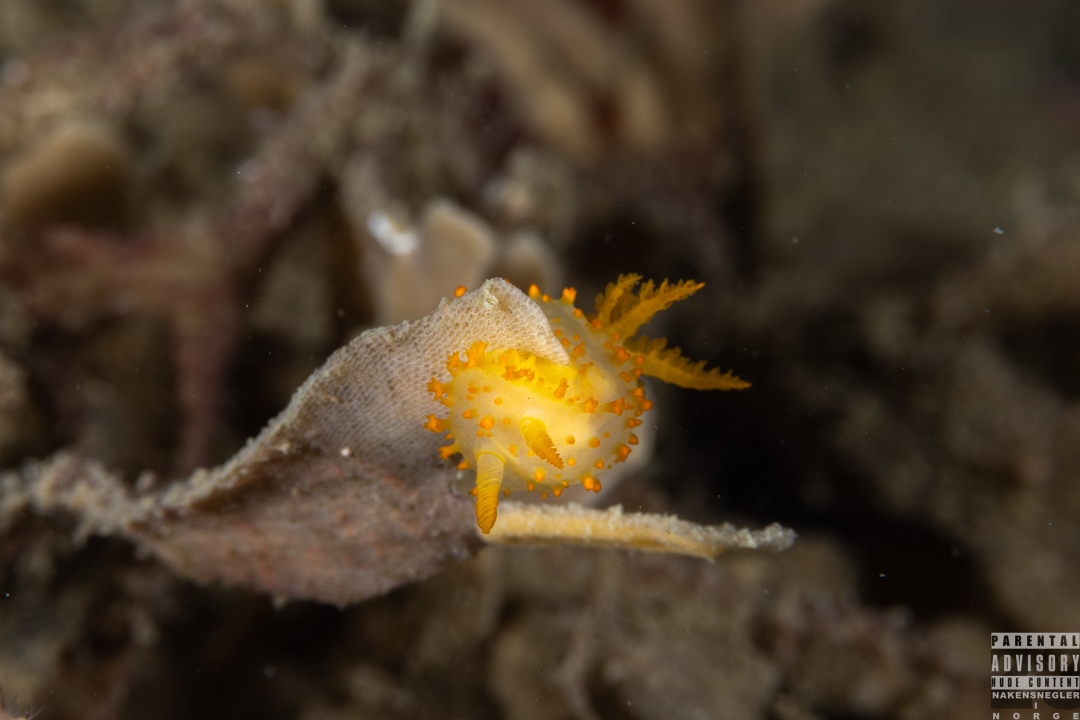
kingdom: Animalia
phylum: Mollusca
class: Gastropoda
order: Nudibranchia
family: Polyceridae
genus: Crimora
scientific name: Crimora papillata
